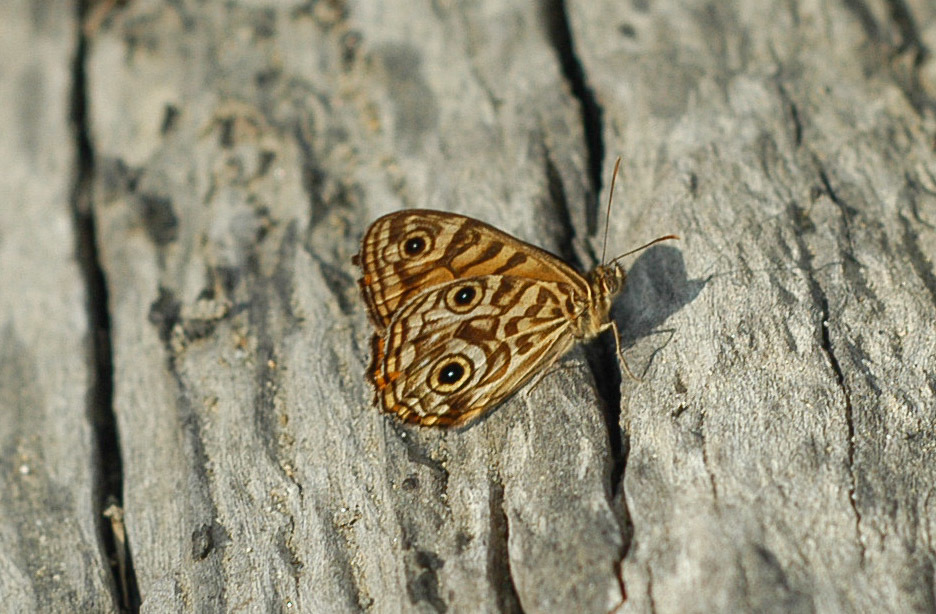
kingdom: Animalia
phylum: Arthropoda
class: Insecta
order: Lepidoptera
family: Nymphalidae
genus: Geitoneura
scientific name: Geitoneura acantha
